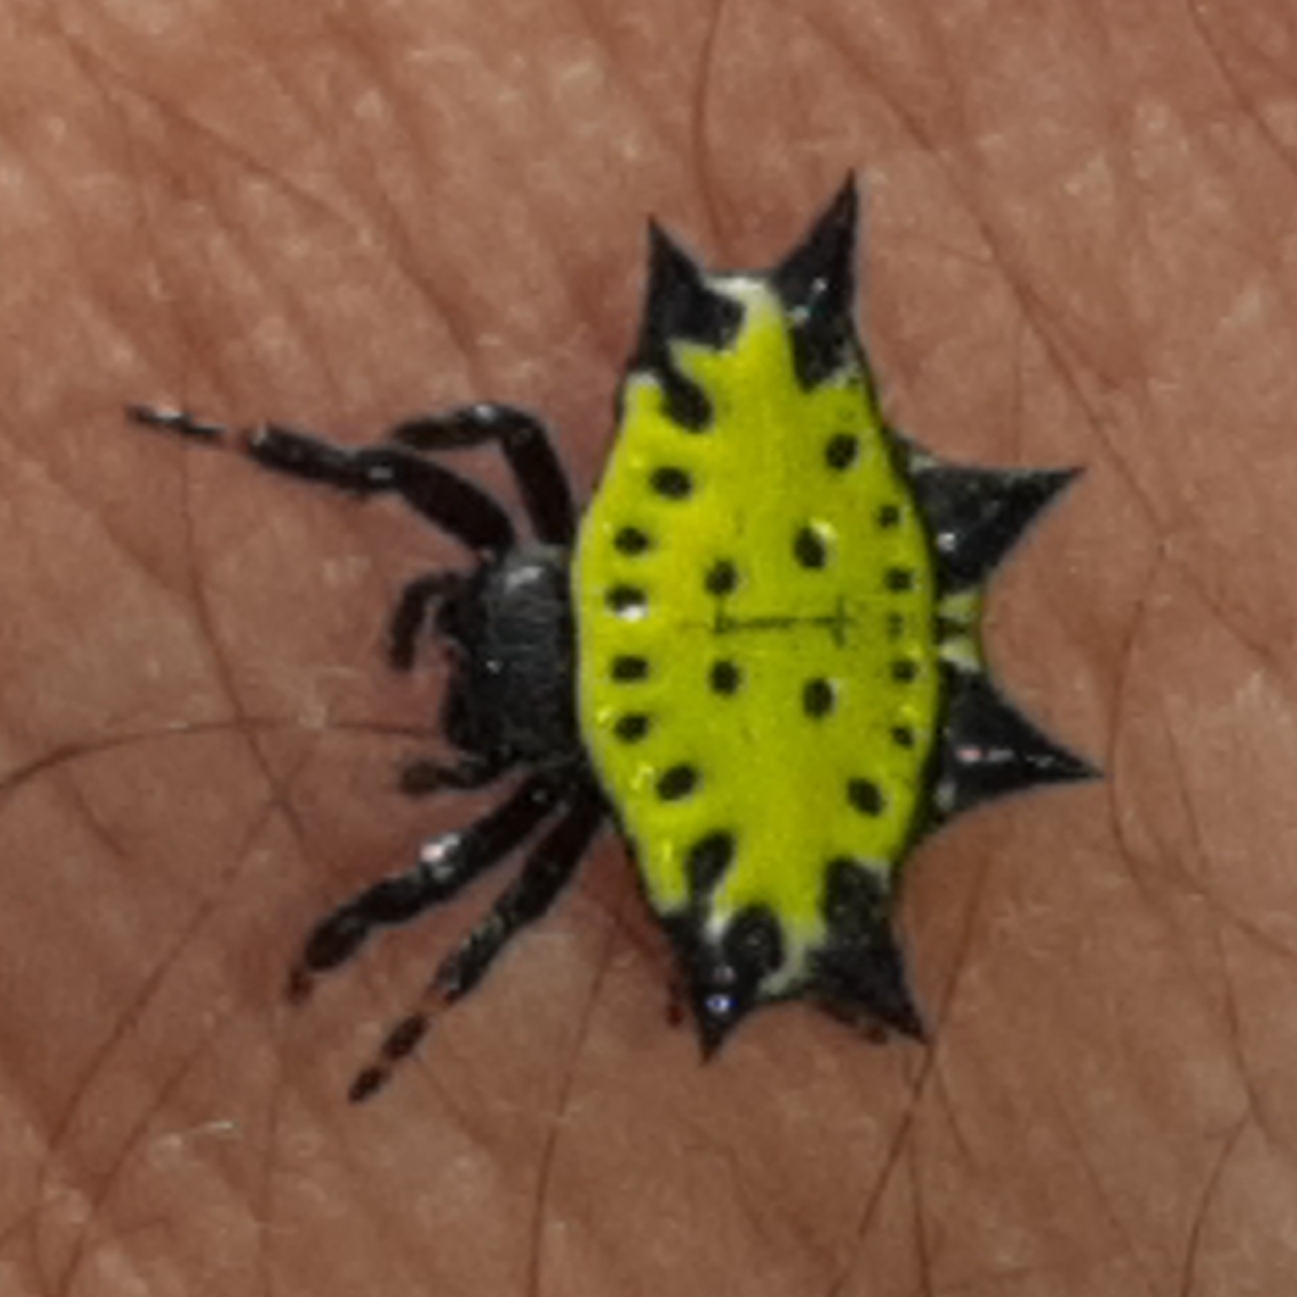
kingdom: Animalia
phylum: Arthropoda
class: Arachnida
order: Araneae
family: Araneidae
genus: Gasteracantha
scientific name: Gasteracantha cancriformis
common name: Orb weavers
